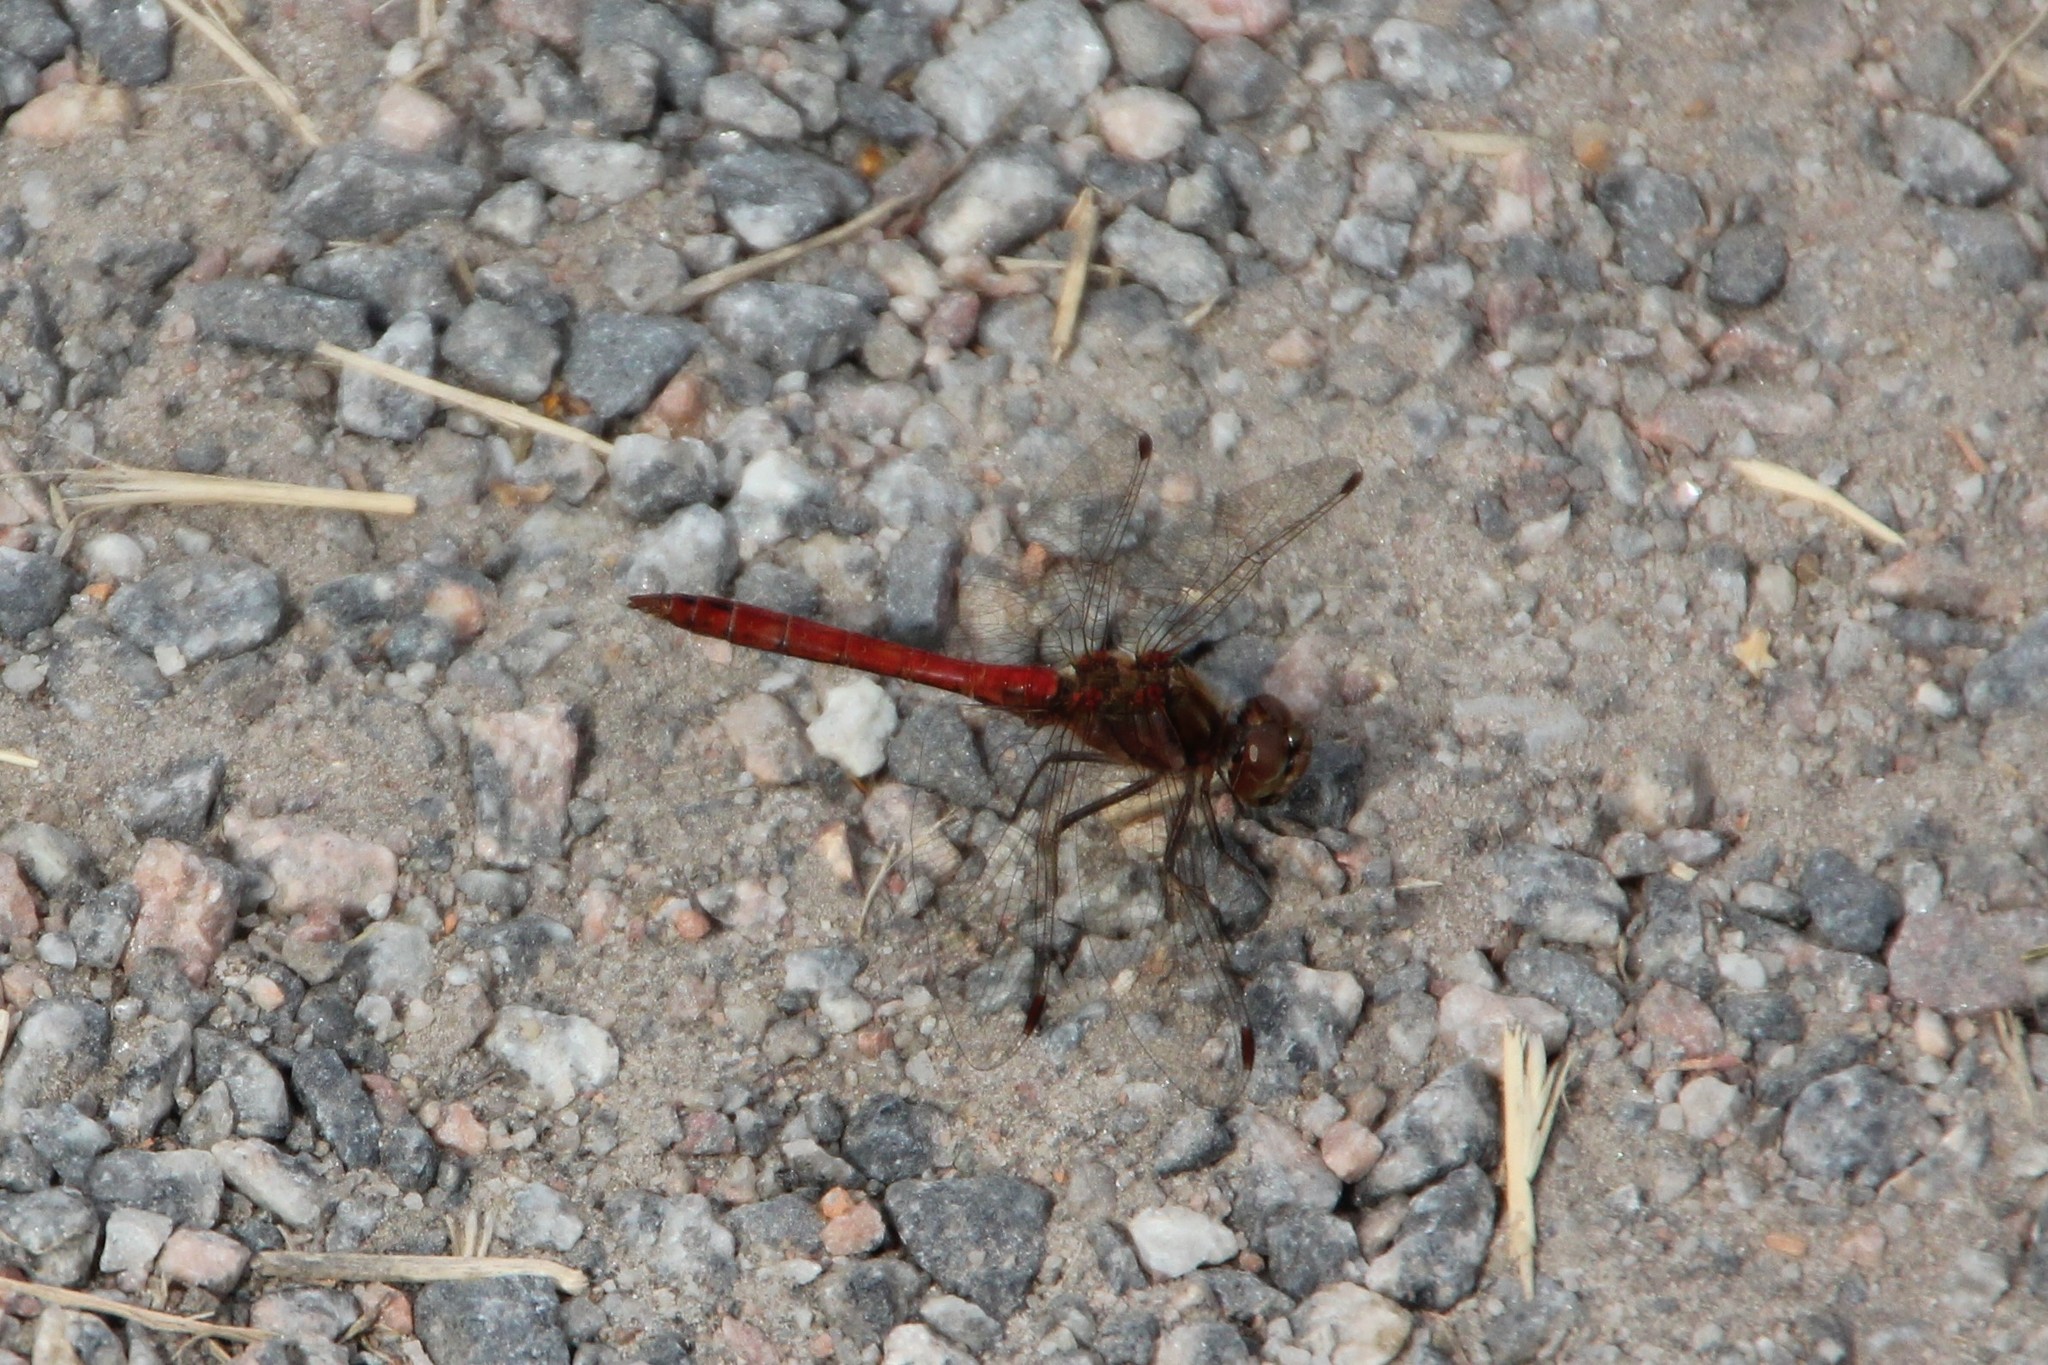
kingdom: Animalia
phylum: Arthropoda
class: Insecta
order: Odonata
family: Libellulidae
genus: Sympetrum
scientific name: Sympetrum vulgatum
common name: Vagrant darter
